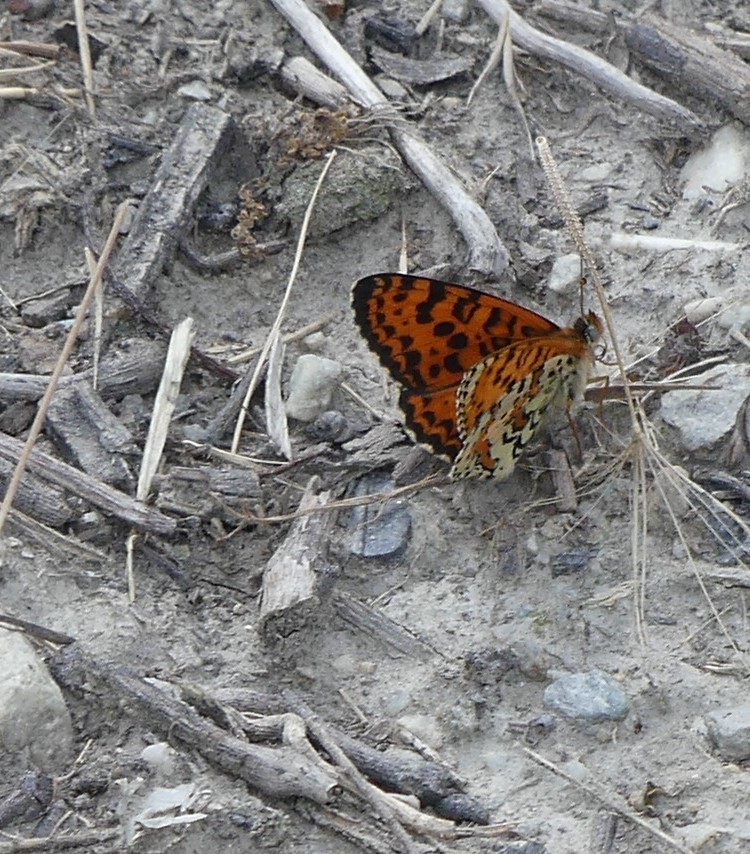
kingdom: Animalia
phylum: Arthropoda
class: Insecta
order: Lepidoptera
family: Nymphalidae
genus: Melitaea
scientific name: Melitaea didyma
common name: Spotted fritillary
